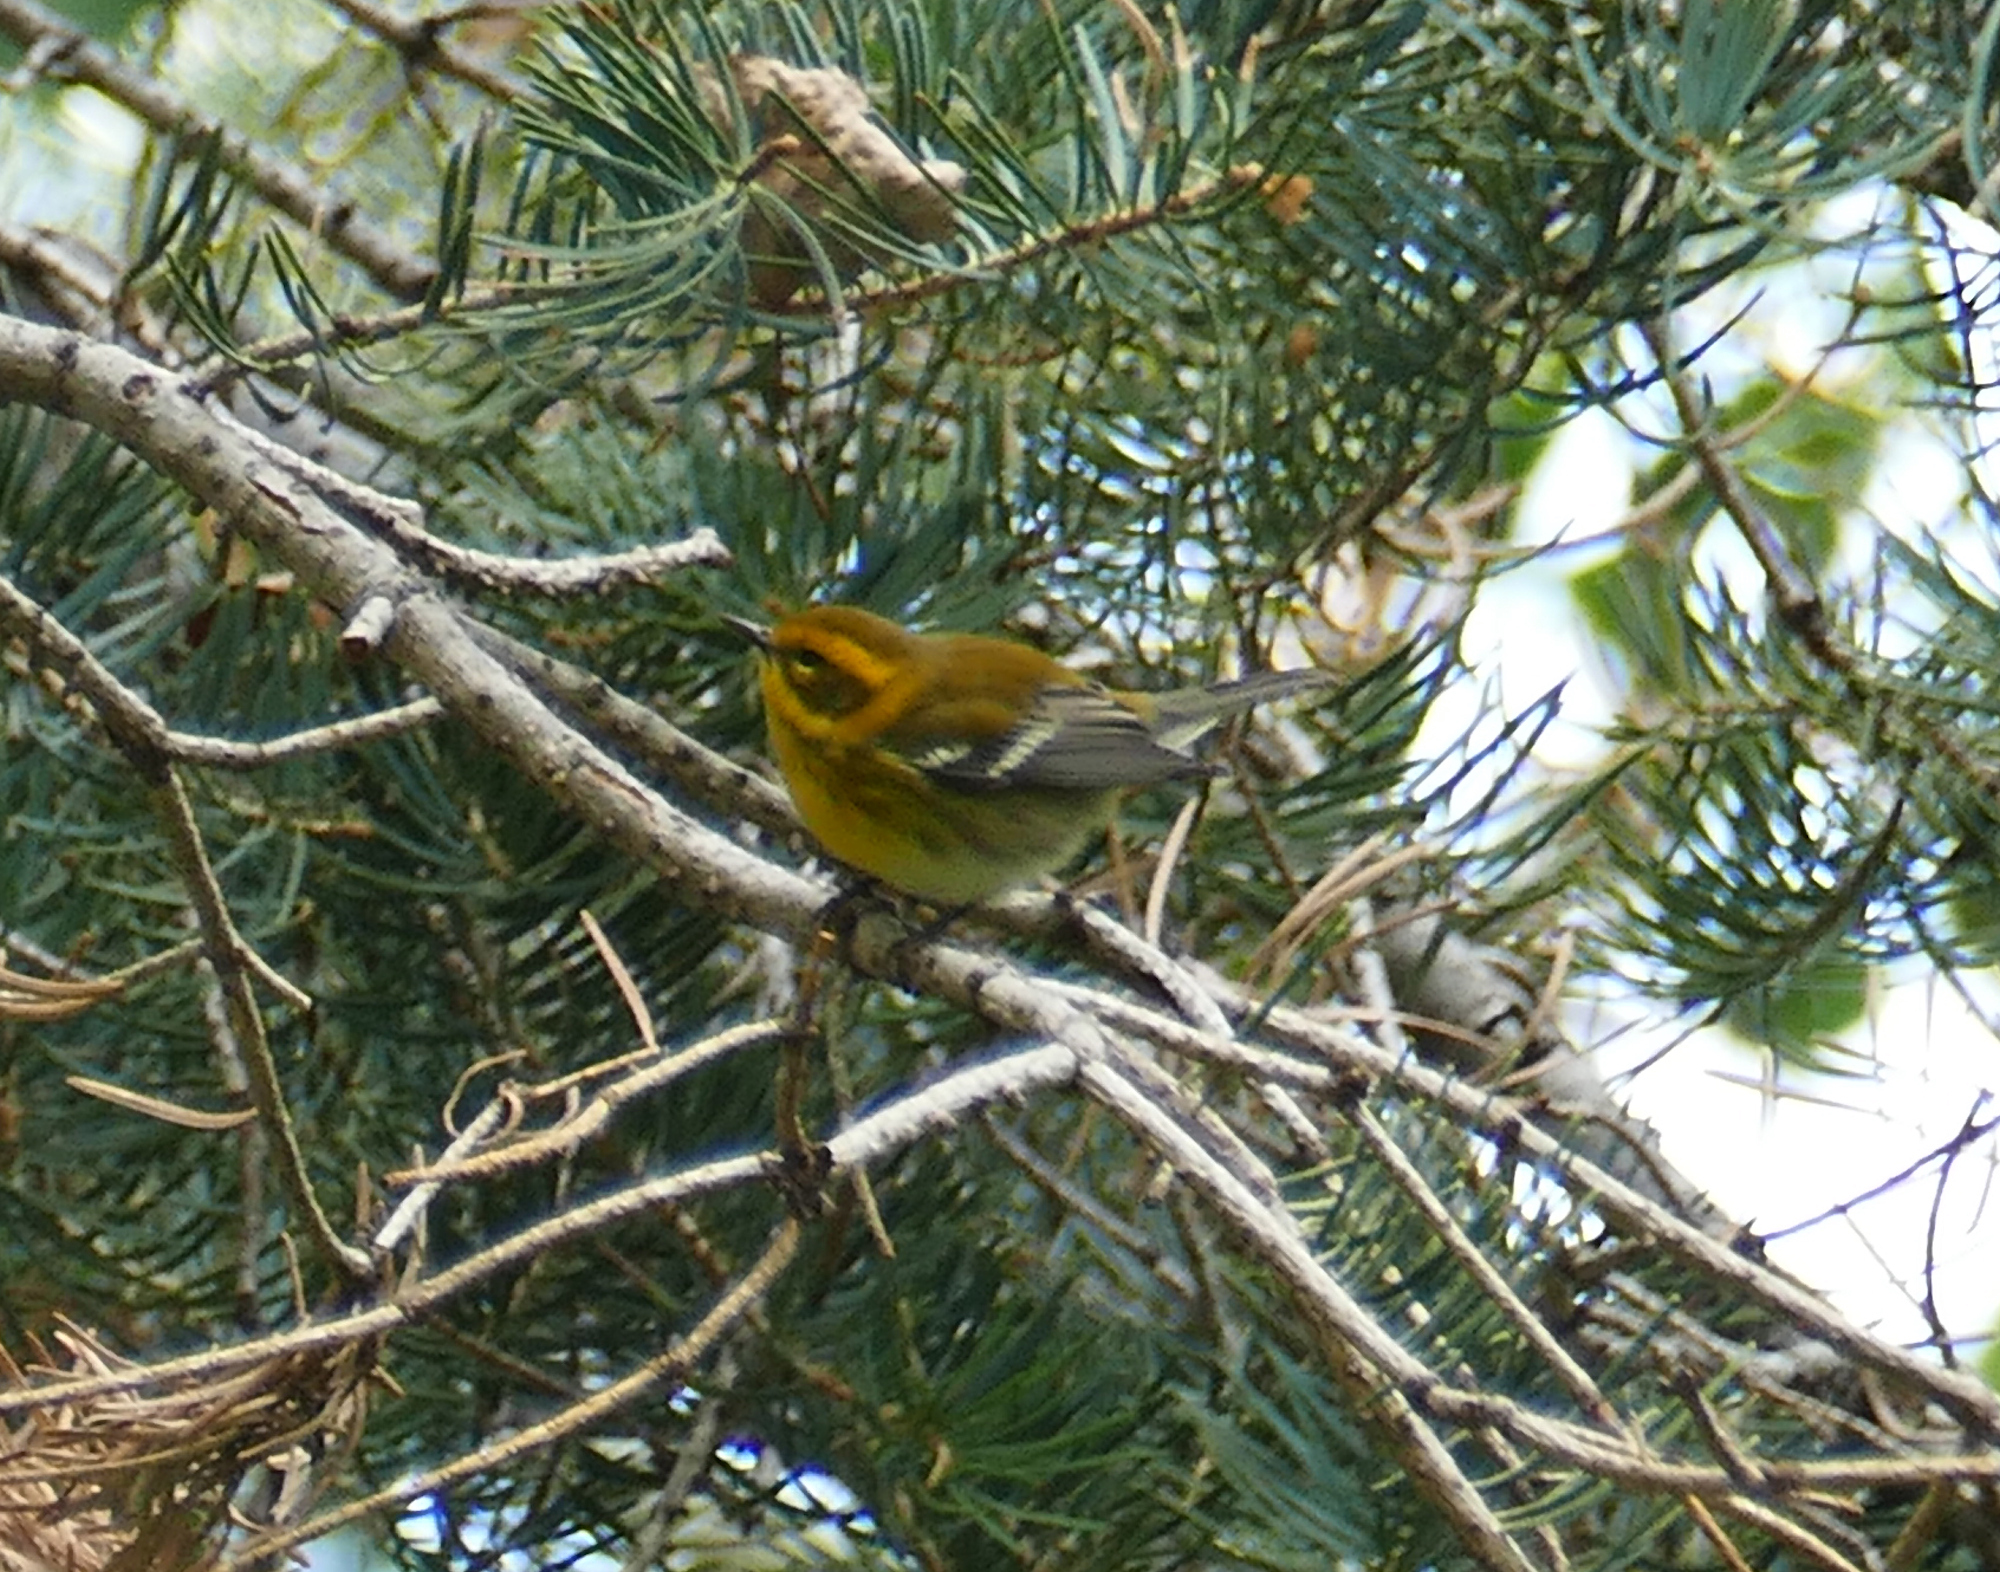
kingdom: Animalia
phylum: Chordata
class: Aves
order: Passeriformes
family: Parulidae
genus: Setophaga
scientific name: Setophaga townsendi
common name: Townsend's warbler
